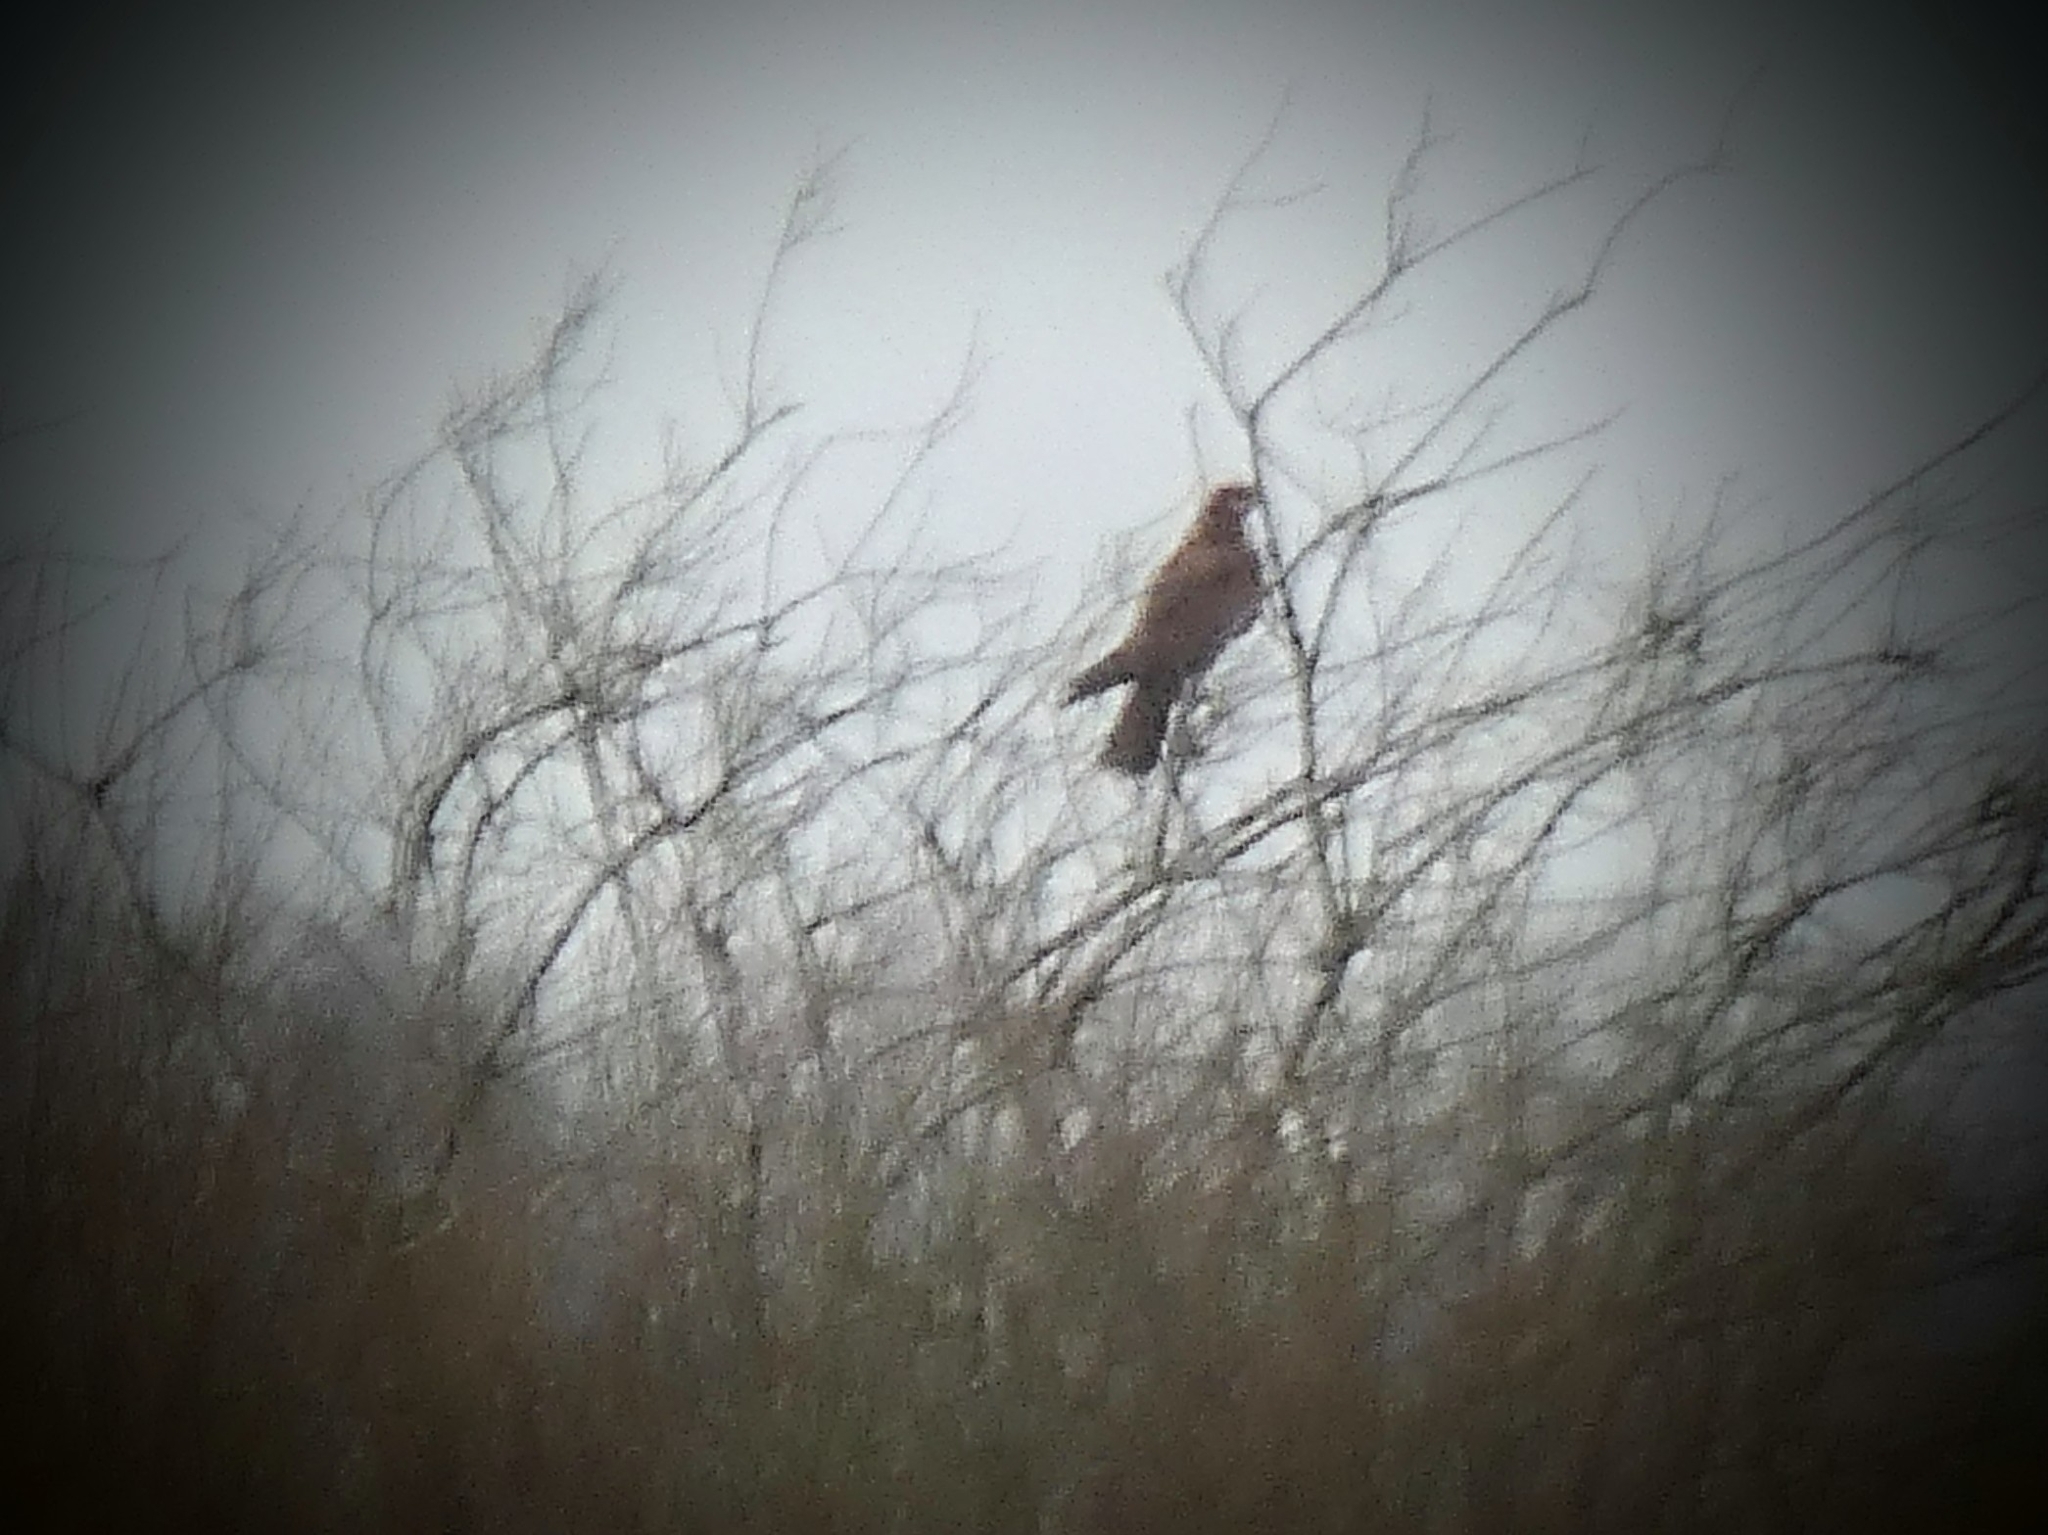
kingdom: Animalia
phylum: Chordata
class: Aves
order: Accipitriformes
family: Accipitridae
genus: Circus
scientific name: Circus aeruginosus
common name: Western marsh harrier
